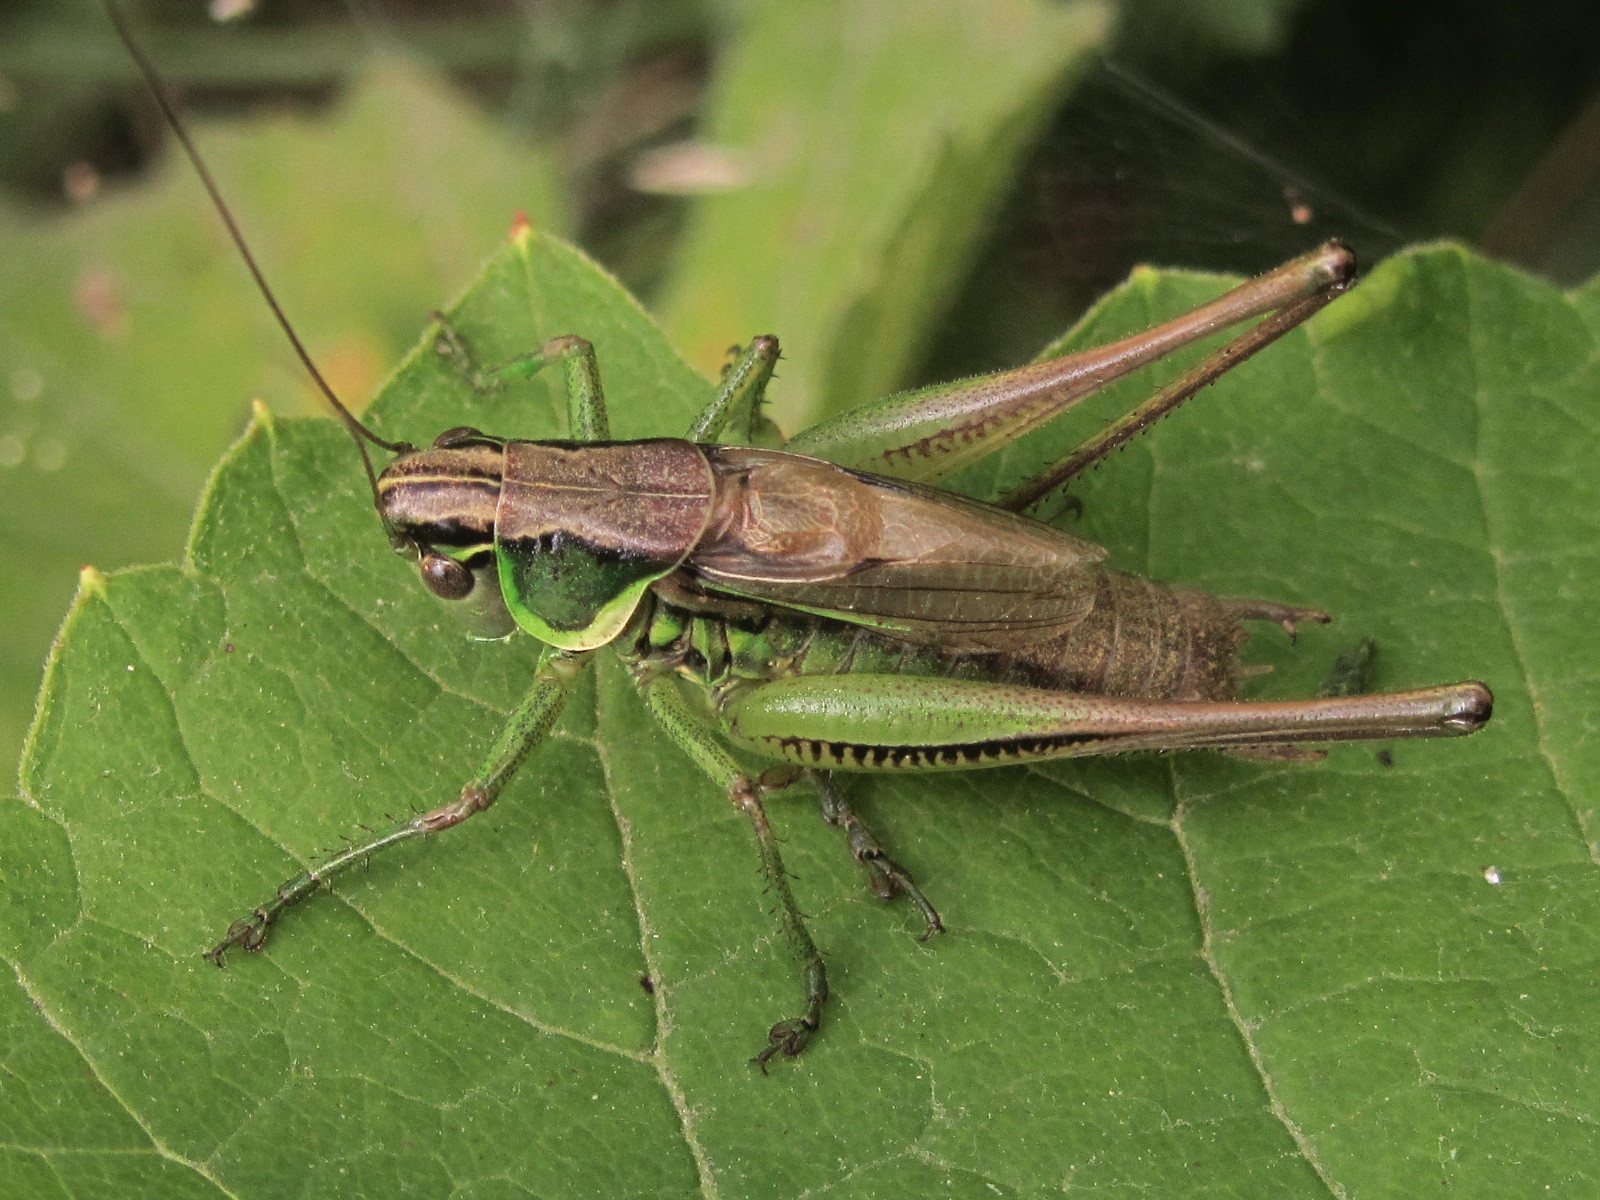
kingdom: Animalia
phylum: Arthropoda
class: Insecta
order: Orthoptera
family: Tettigoniidae
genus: Roeseliana
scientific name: Roeseliana roeselii
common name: Roesel's bush cricket
